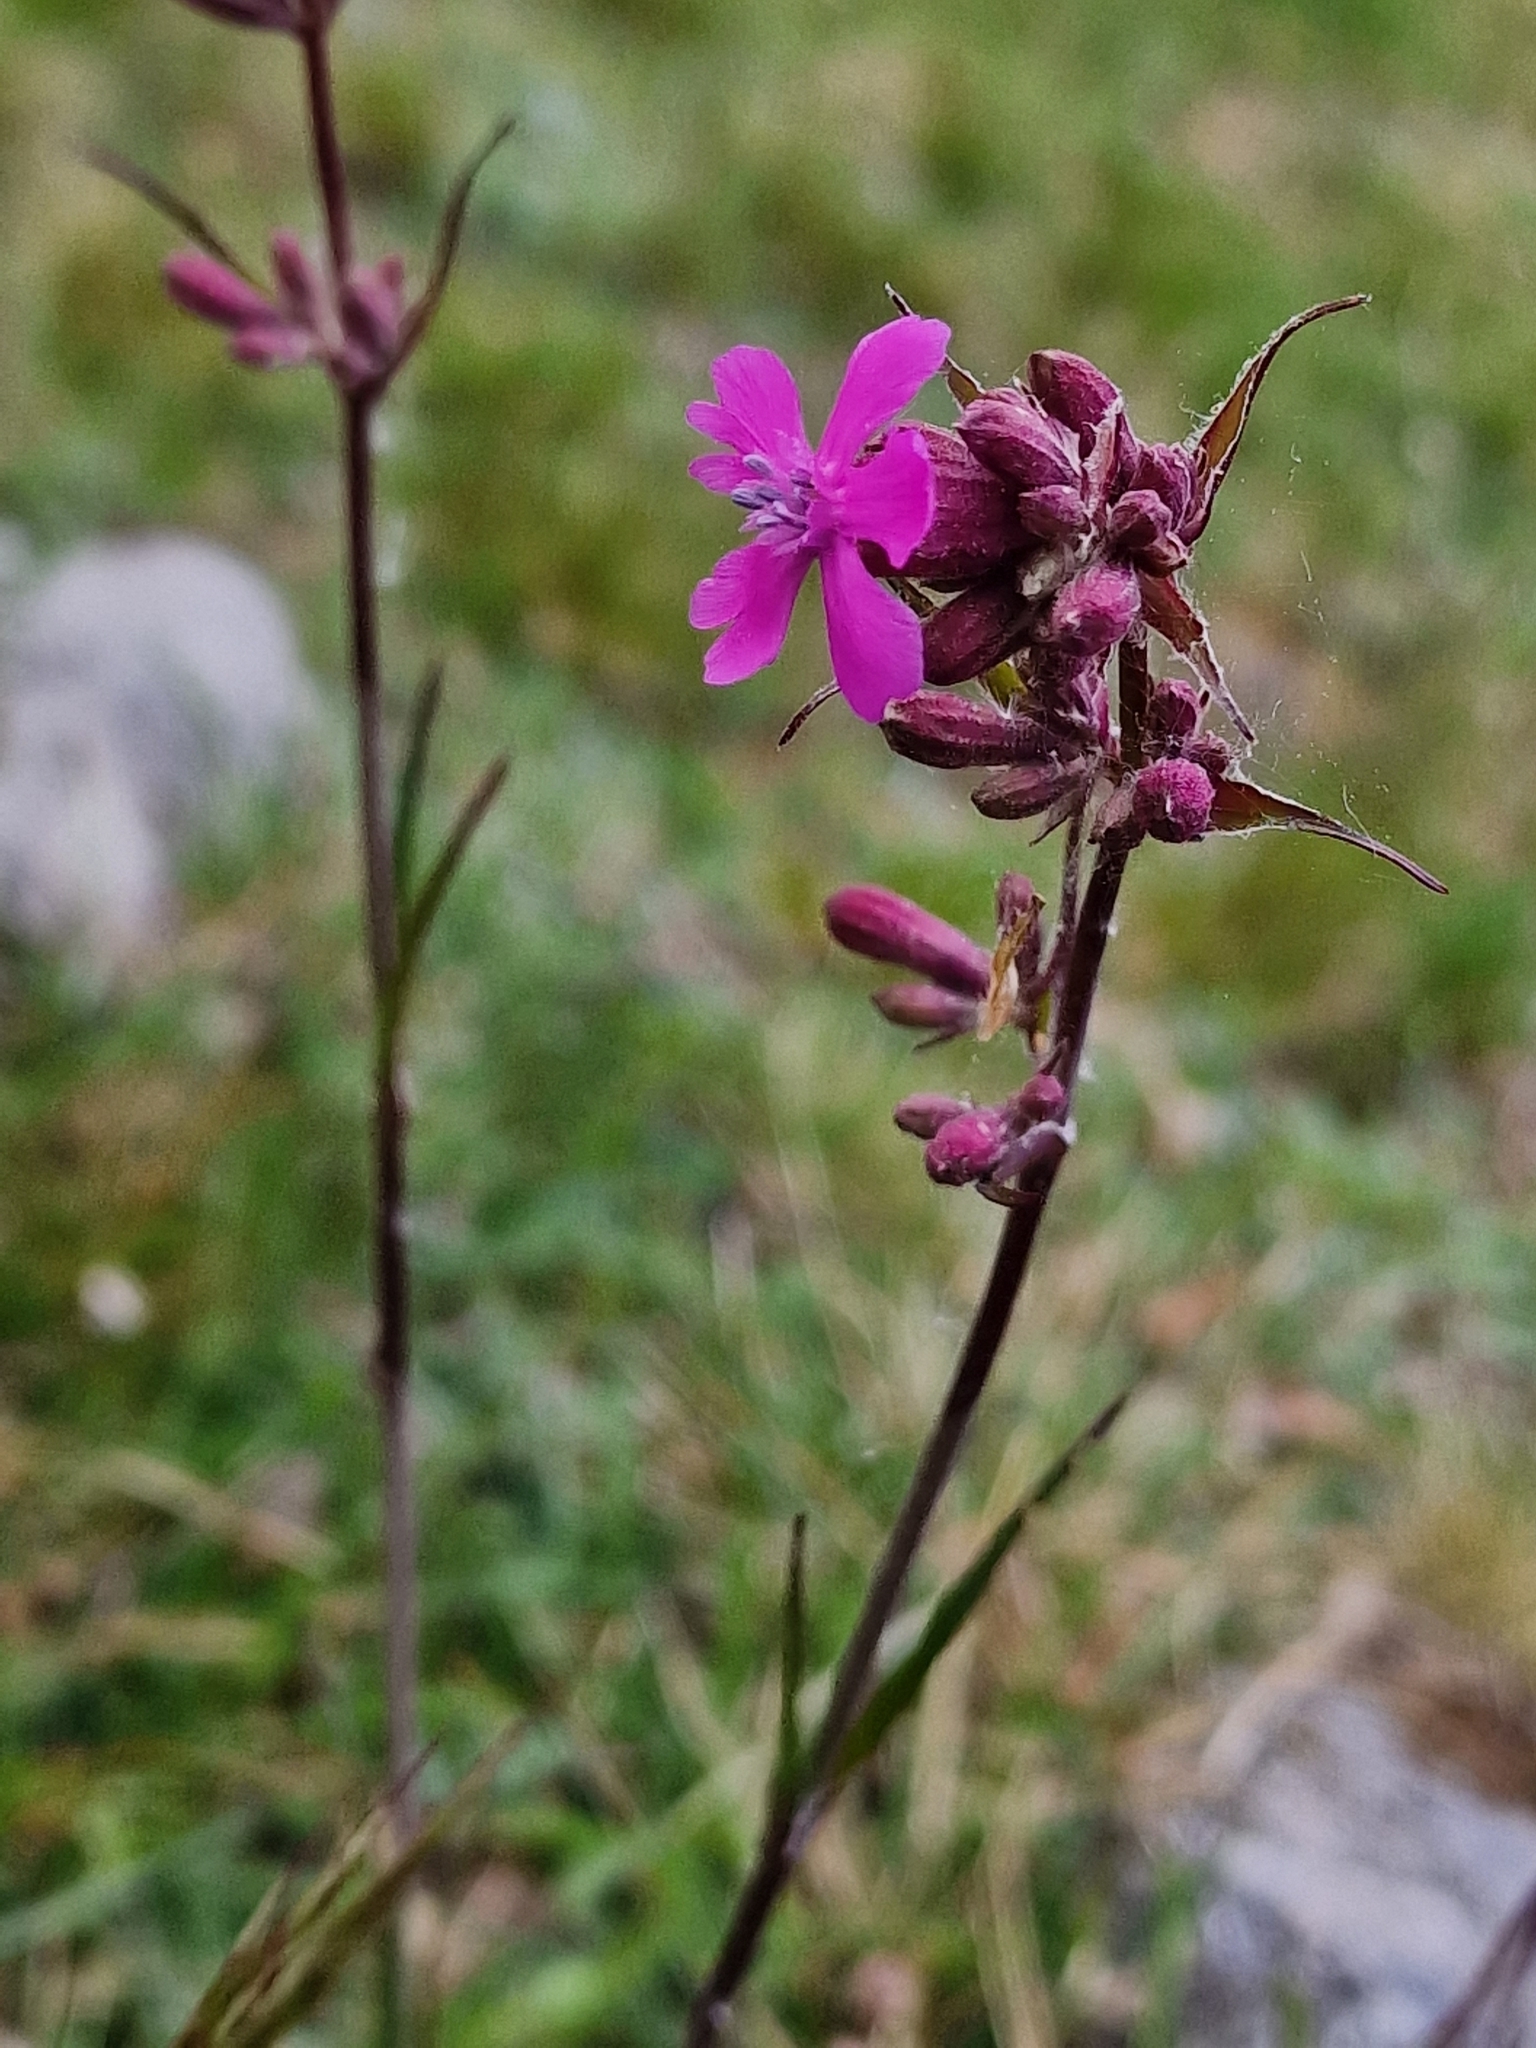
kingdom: Plantae
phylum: Tracheophyta
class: Magnoliopsida
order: Caryophyllales
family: Caryophyllaceae
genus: Viscaria
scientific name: Viscaria vulgaris
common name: Clammy campion
